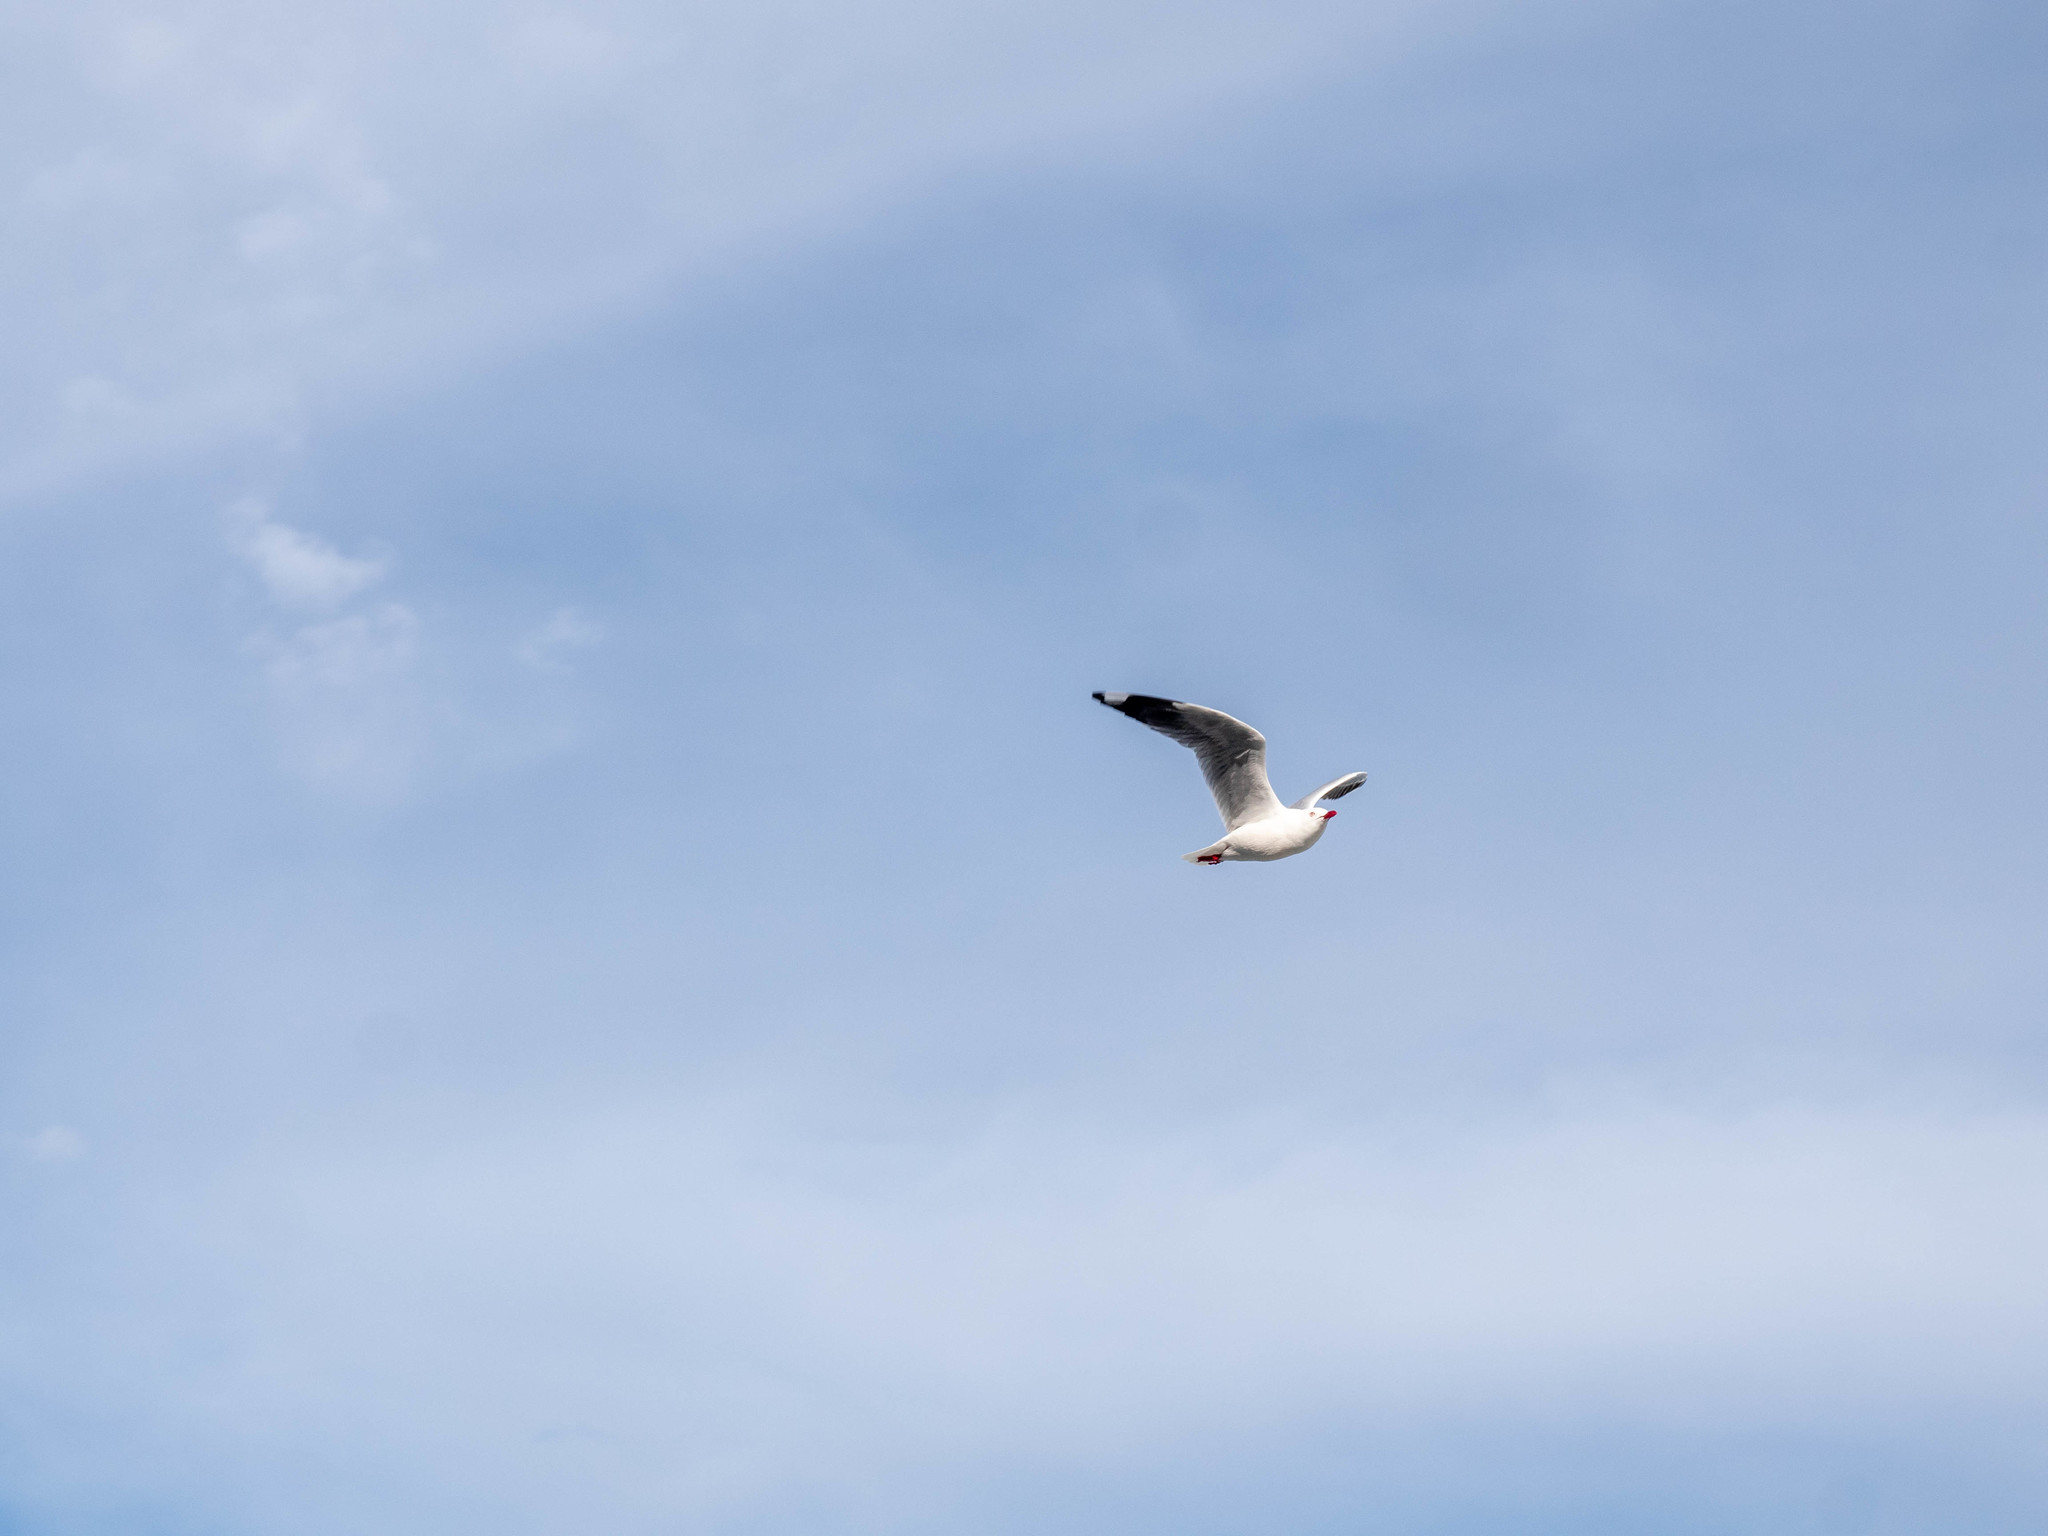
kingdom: Animalia
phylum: Chordata
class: Aves
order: Charadriiformes
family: Laridae
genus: Chroicocephalus
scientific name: Chroicocephalus novaehollandiae
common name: Silver gull
